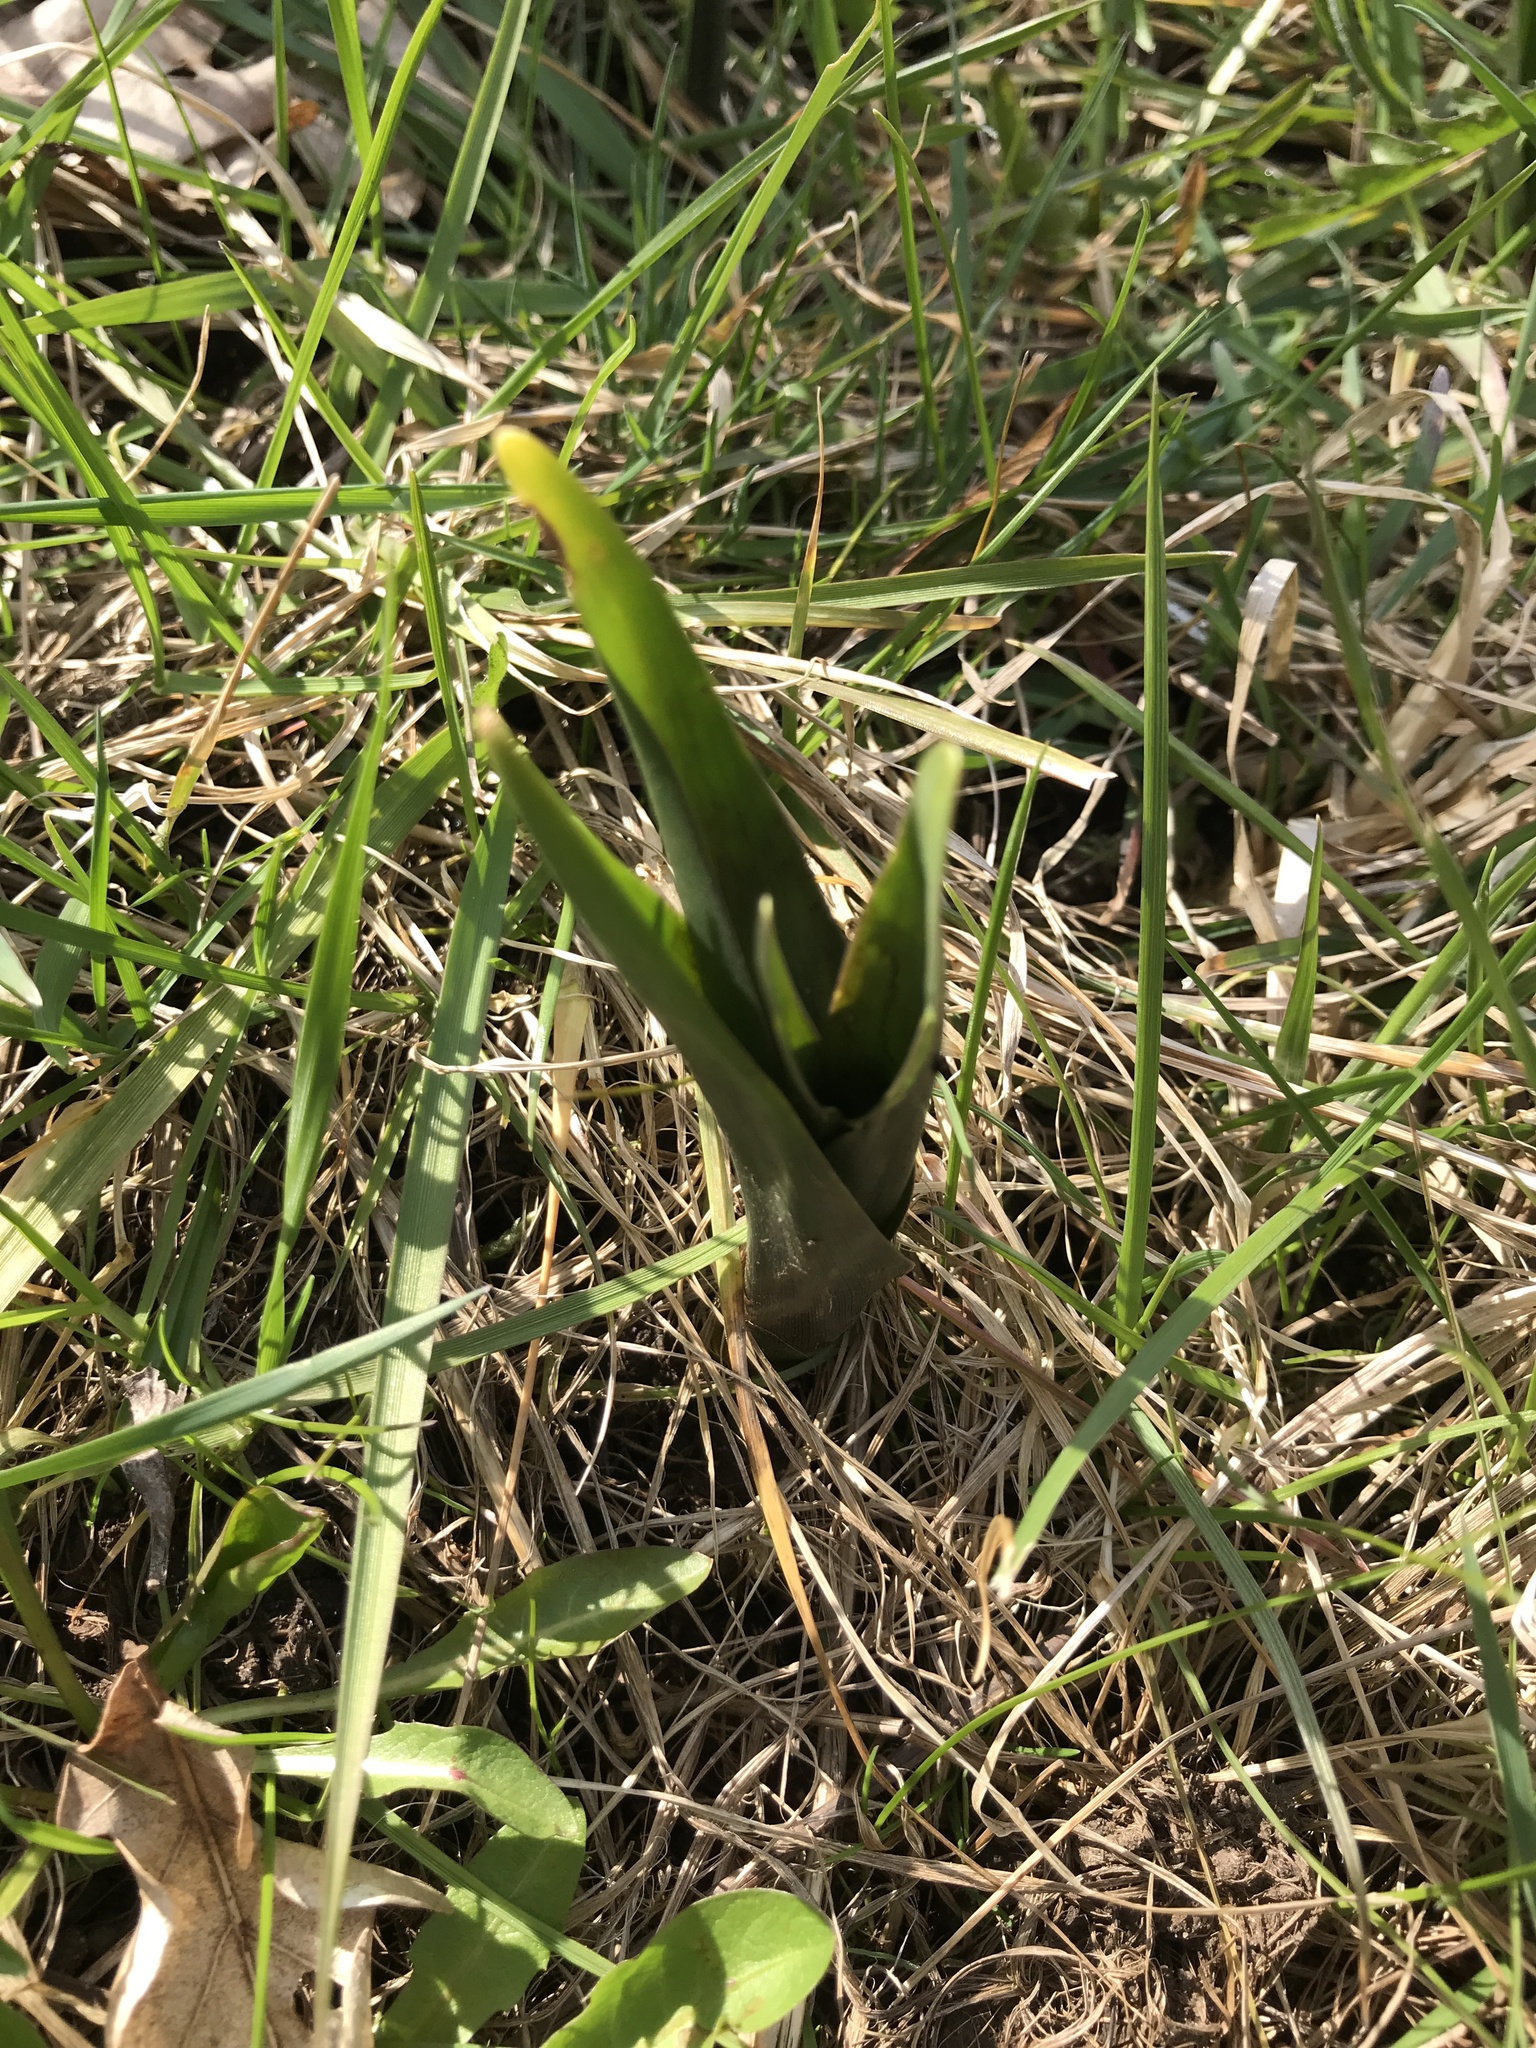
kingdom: Plantae
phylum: Tracheophyta
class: Liliopsida
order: Liliales
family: Colchicaceae
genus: Colchicum
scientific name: Colchicum autumnale
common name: Autumn crocus
